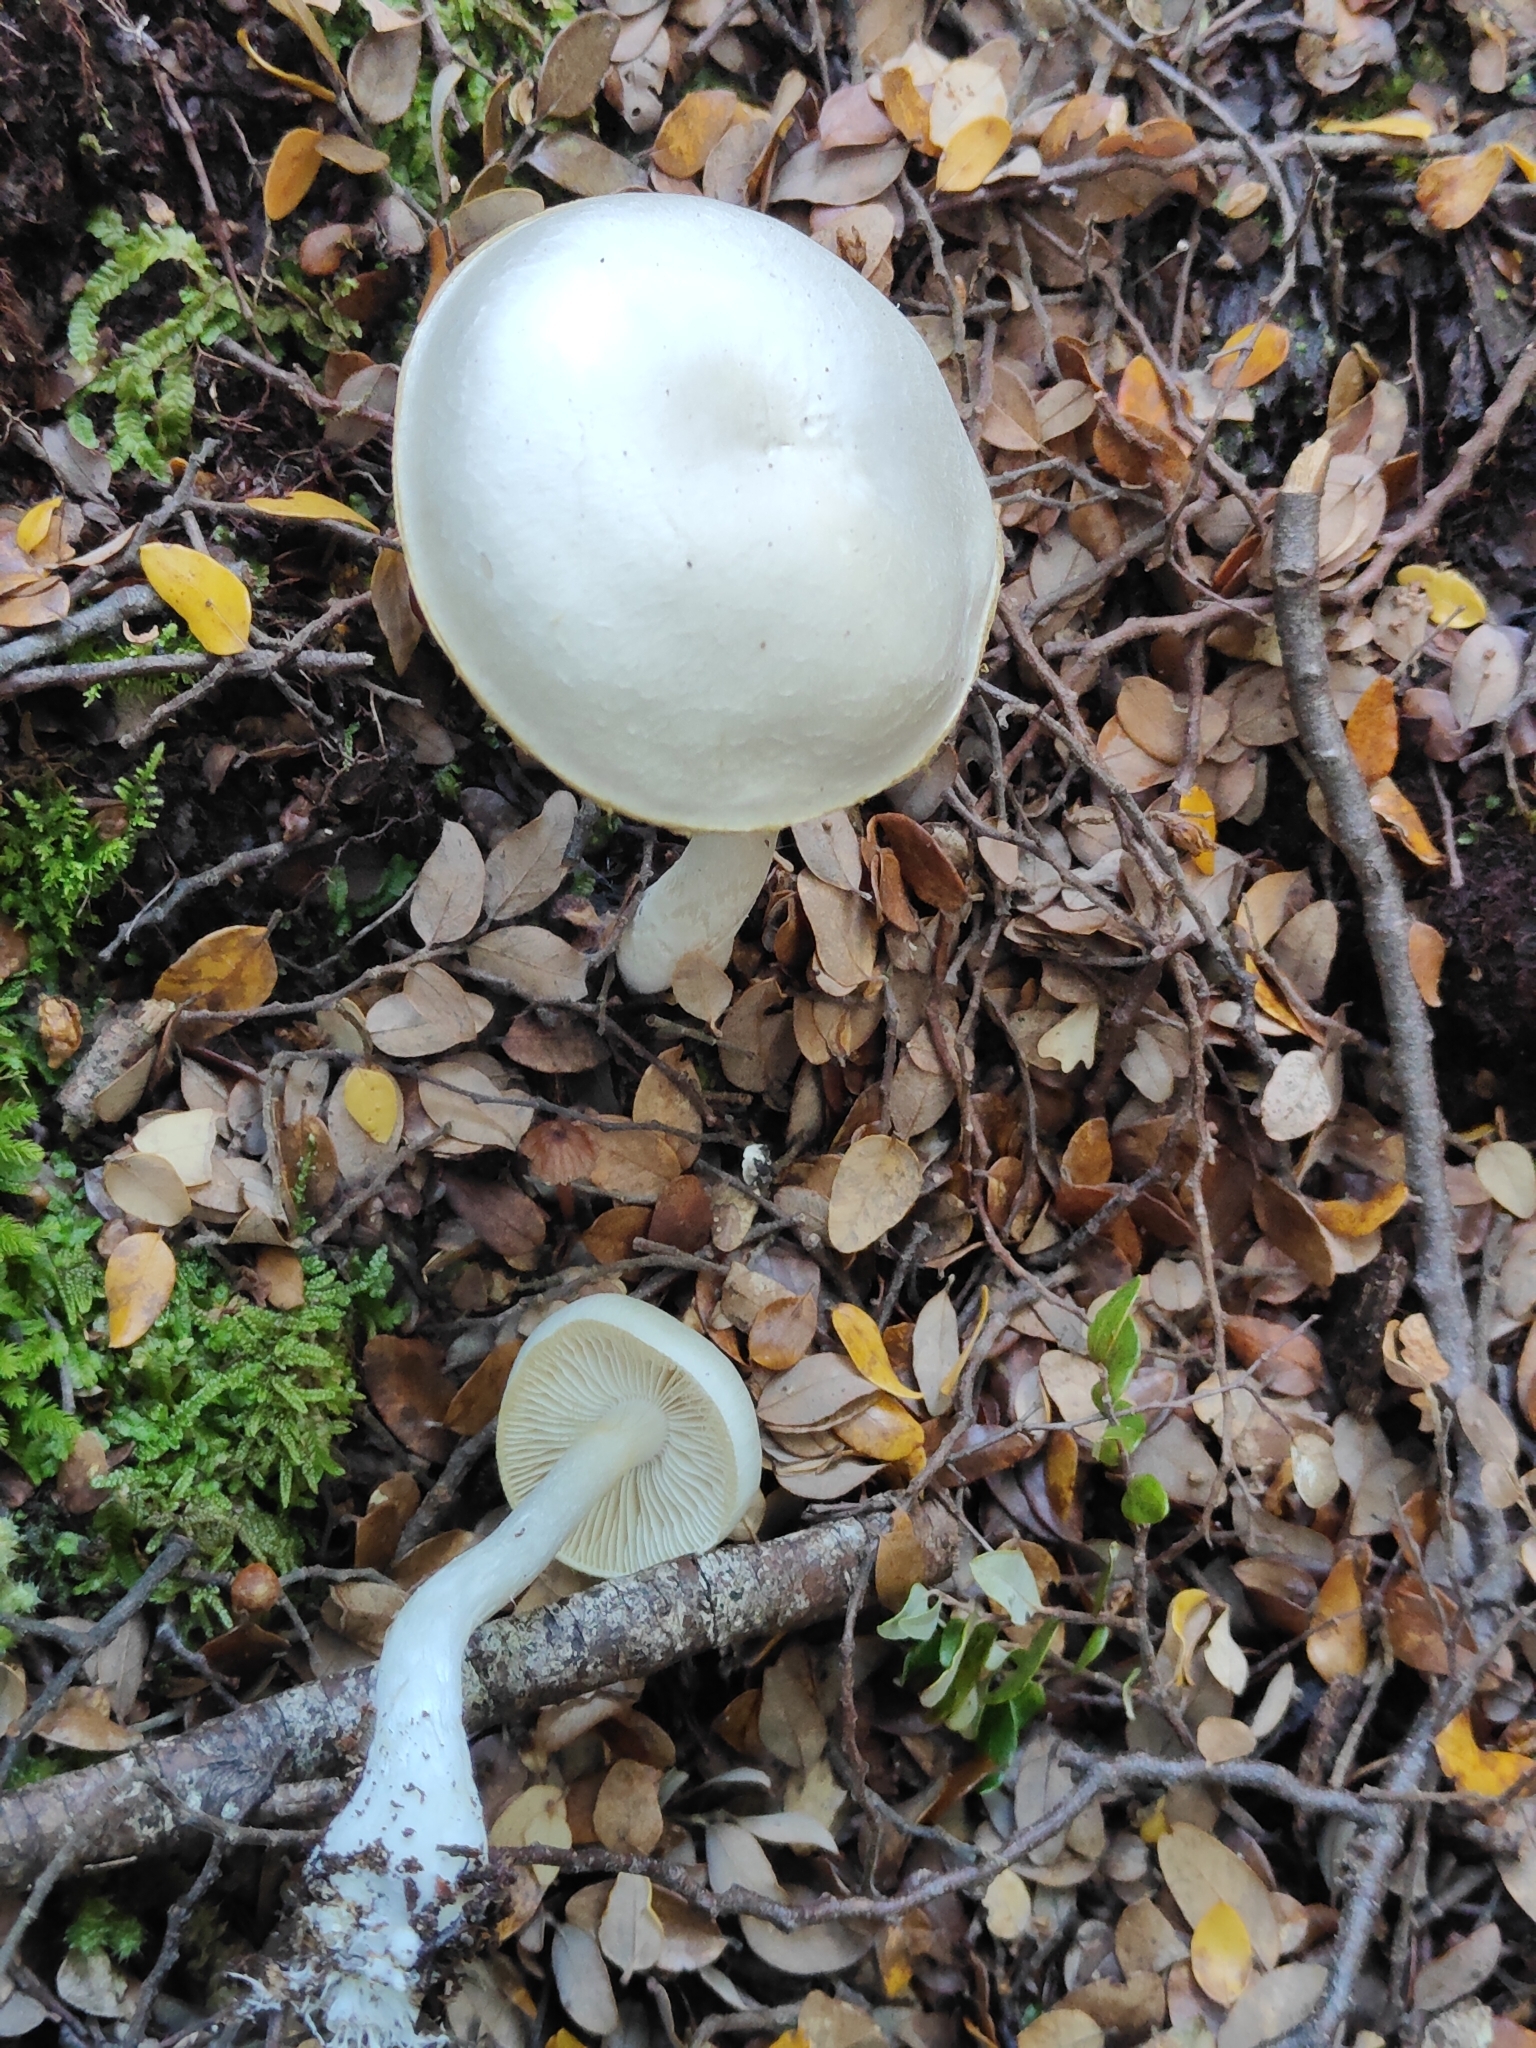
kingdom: Fungi
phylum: Basidiomycota
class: Agaricomycetes
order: Agaricales
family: Cortinariaceae
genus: Thaxterogaster
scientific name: Thaxterogaster mariae
